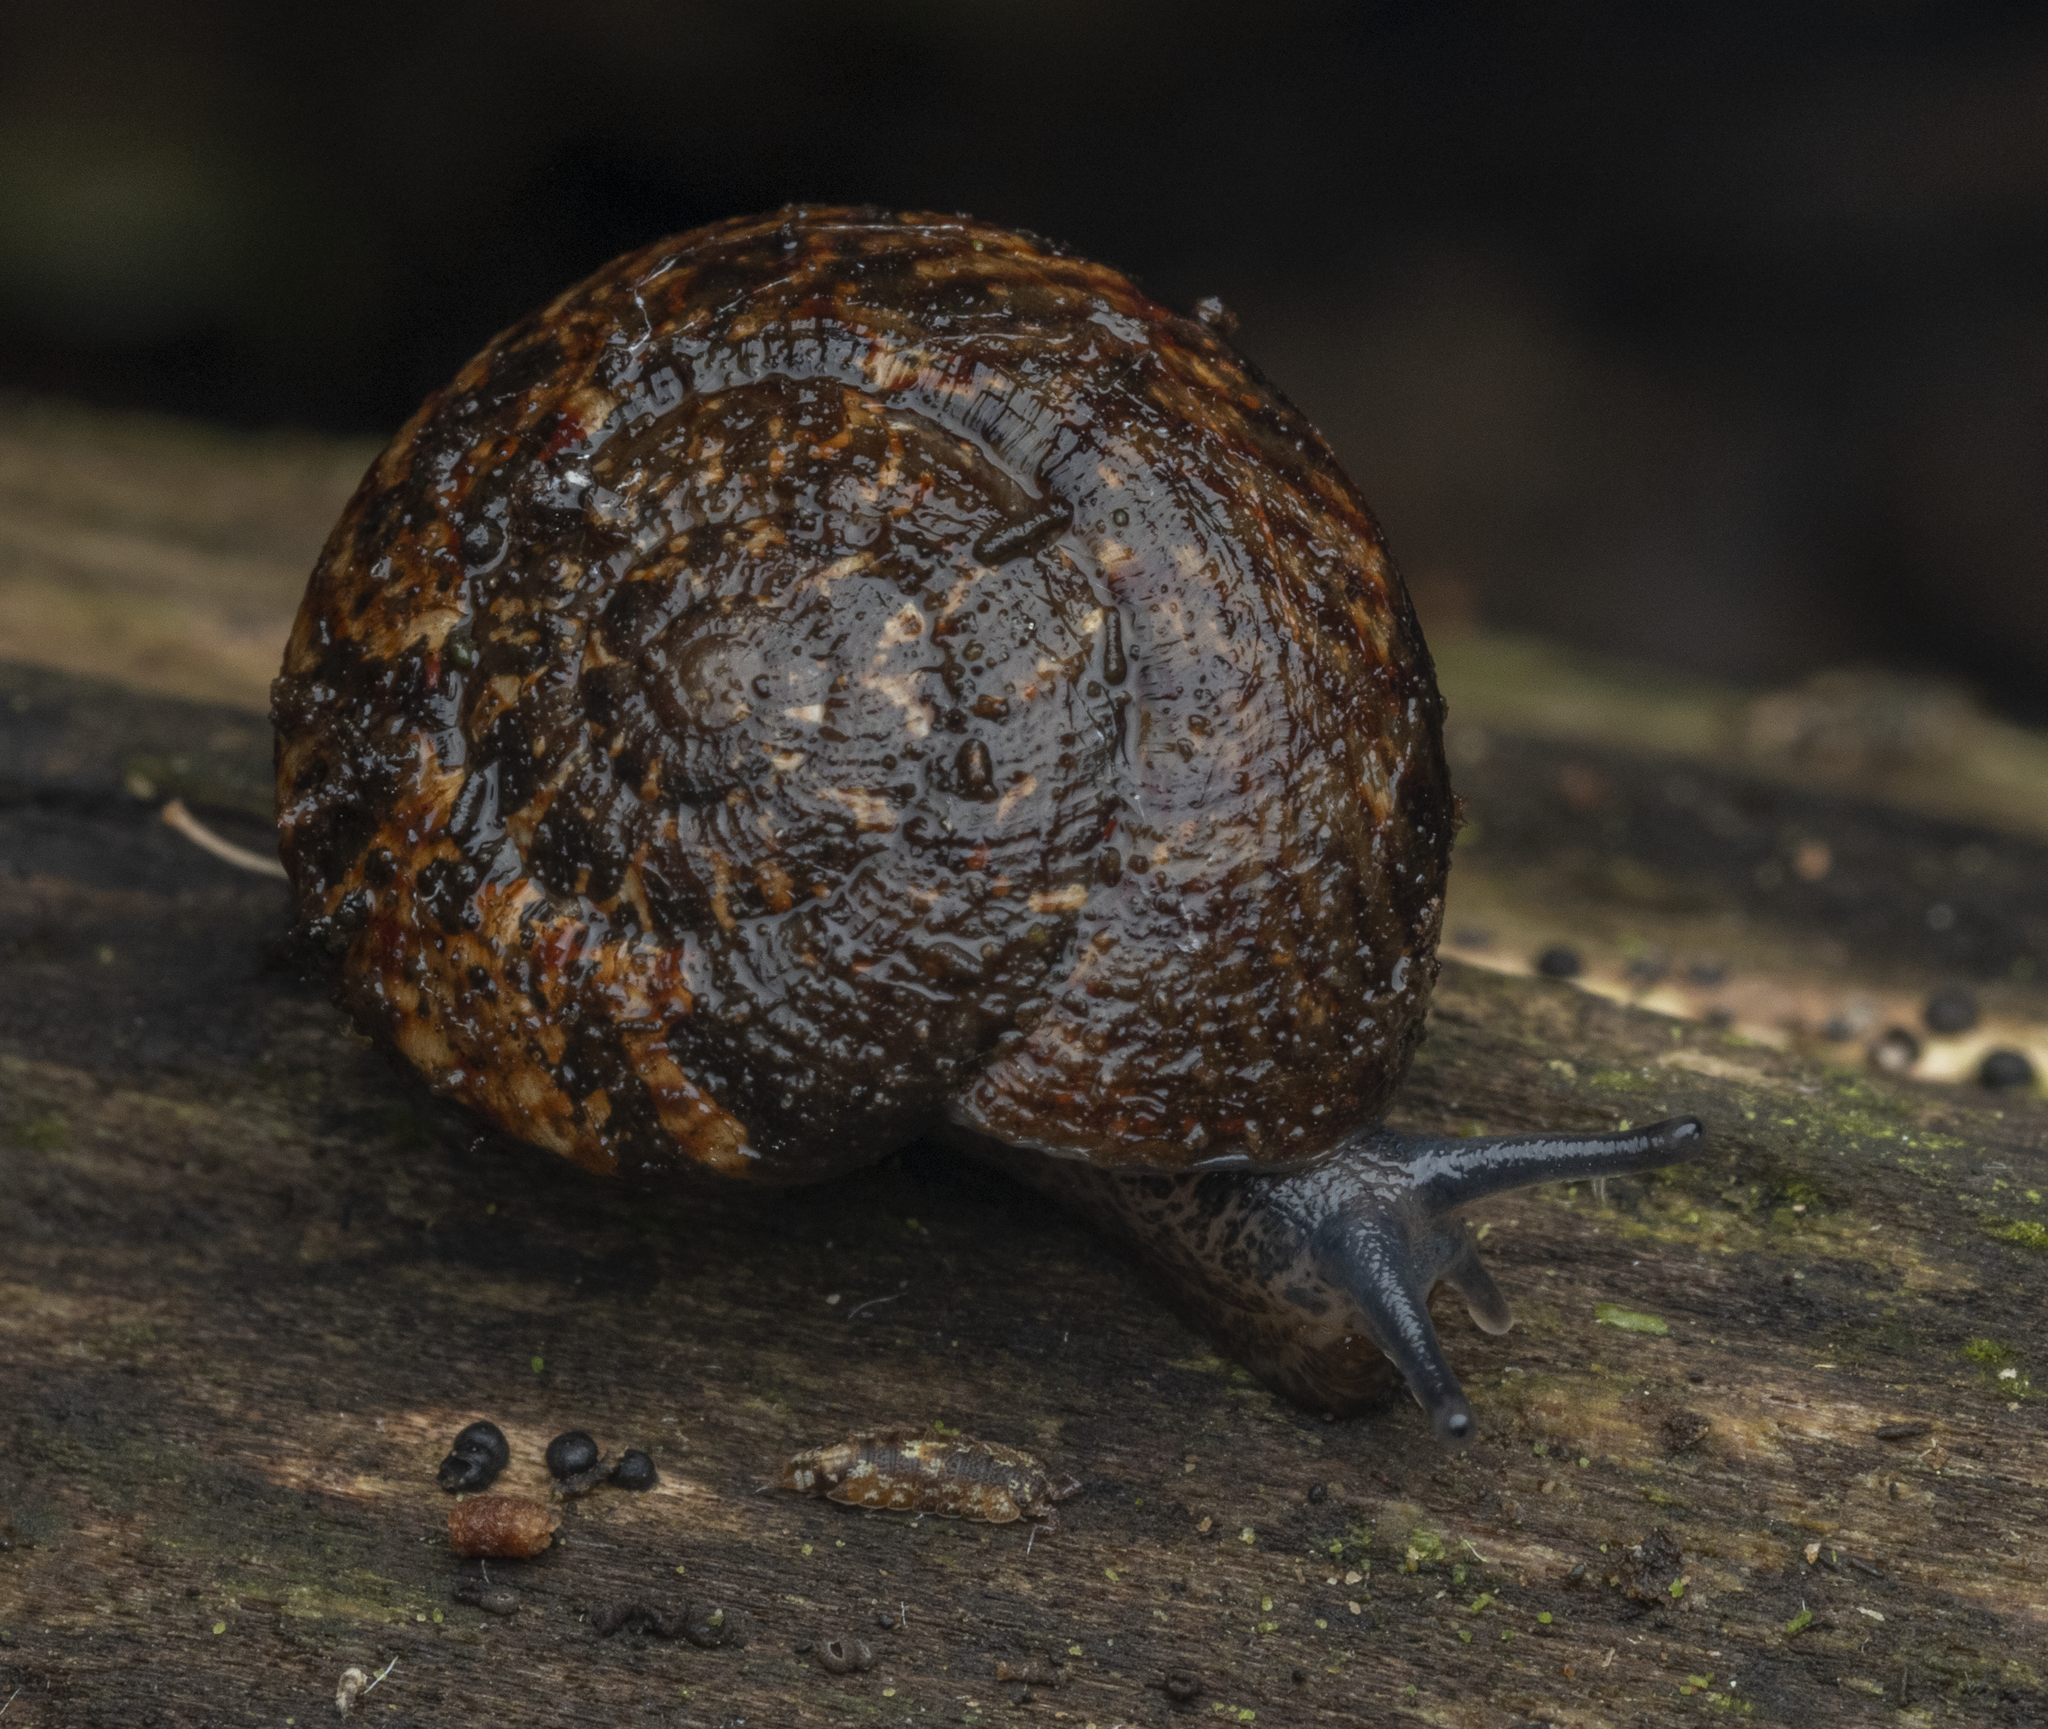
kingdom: Animalia
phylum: Mollusca
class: Gastropoda
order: Stylommatophora
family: Charopidae
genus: Thalassohelix
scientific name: Thalassohelix igniflua
